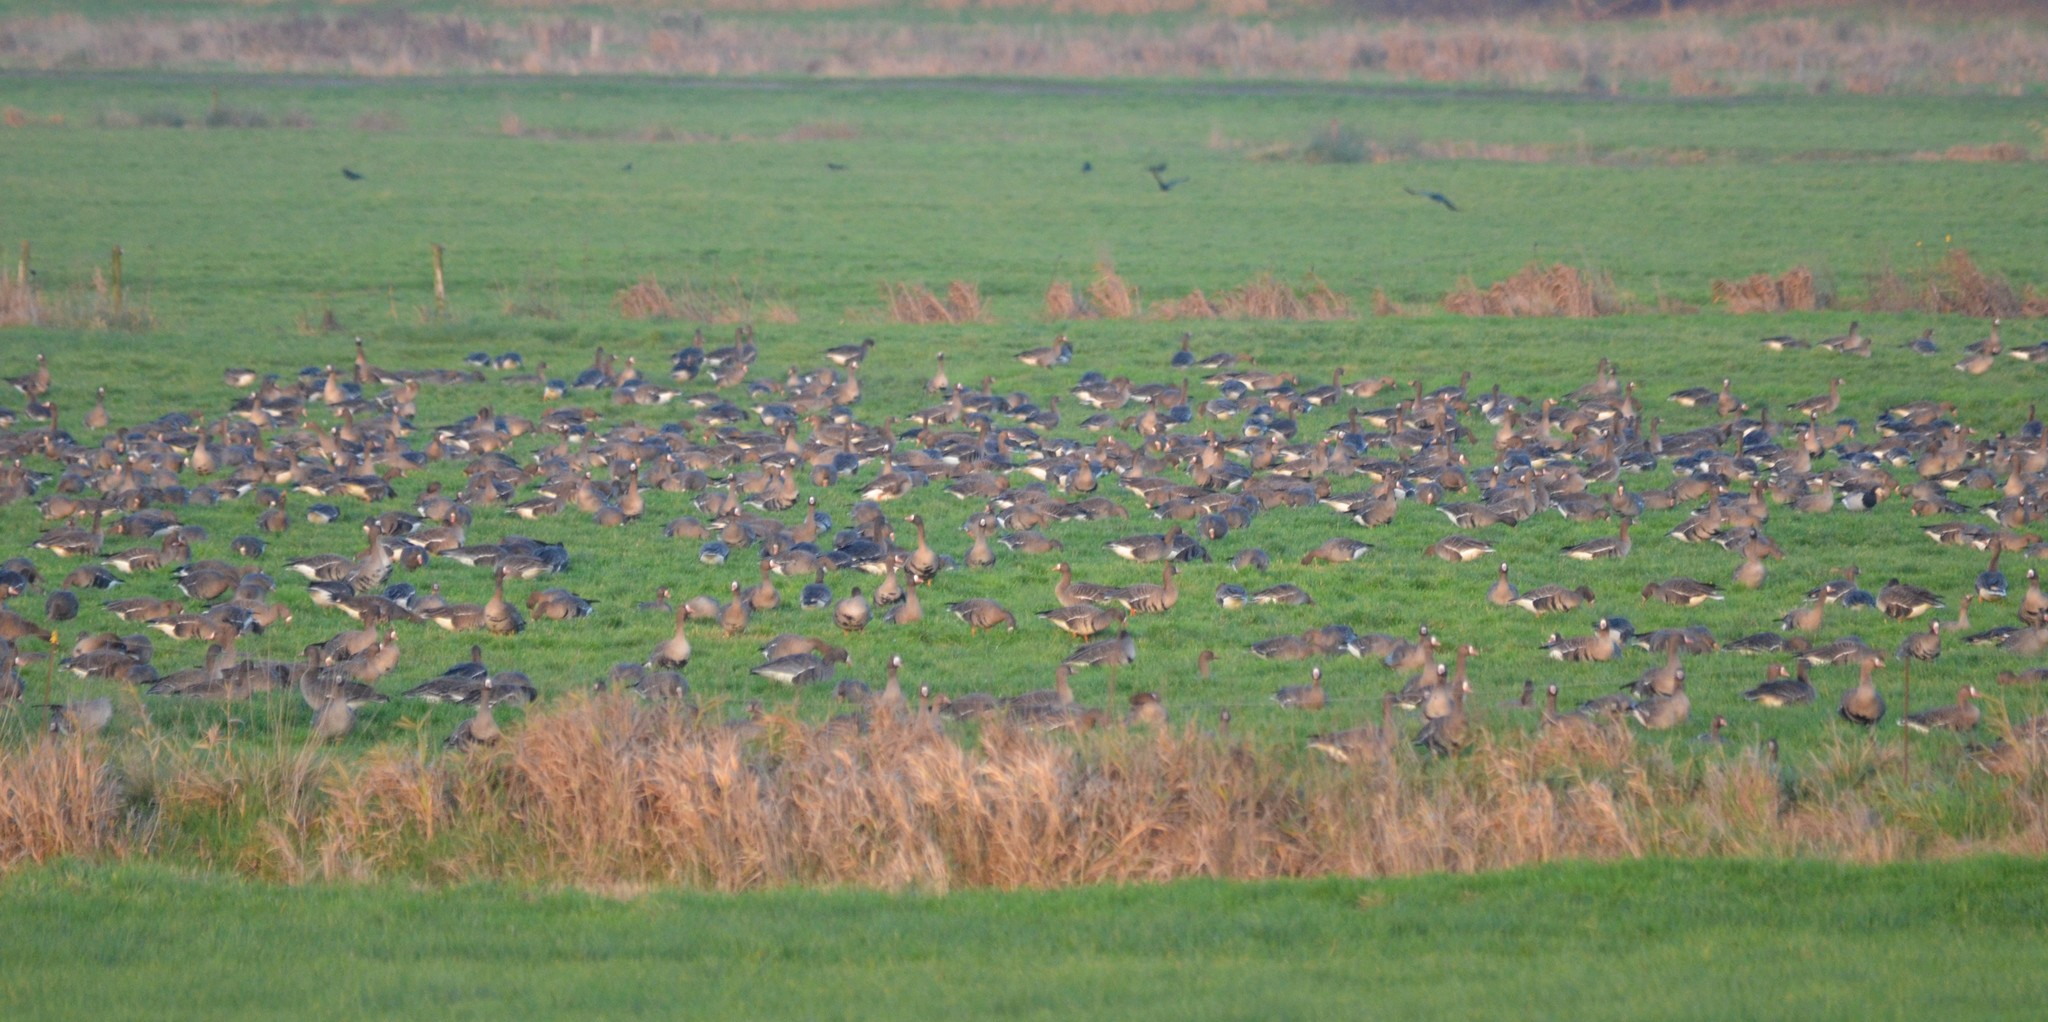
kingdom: Animalia
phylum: Chordata
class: Aves
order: Anseriformes
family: Anatidae
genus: Anser
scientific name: Anser albifrons
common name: Greater white-fronted goose
